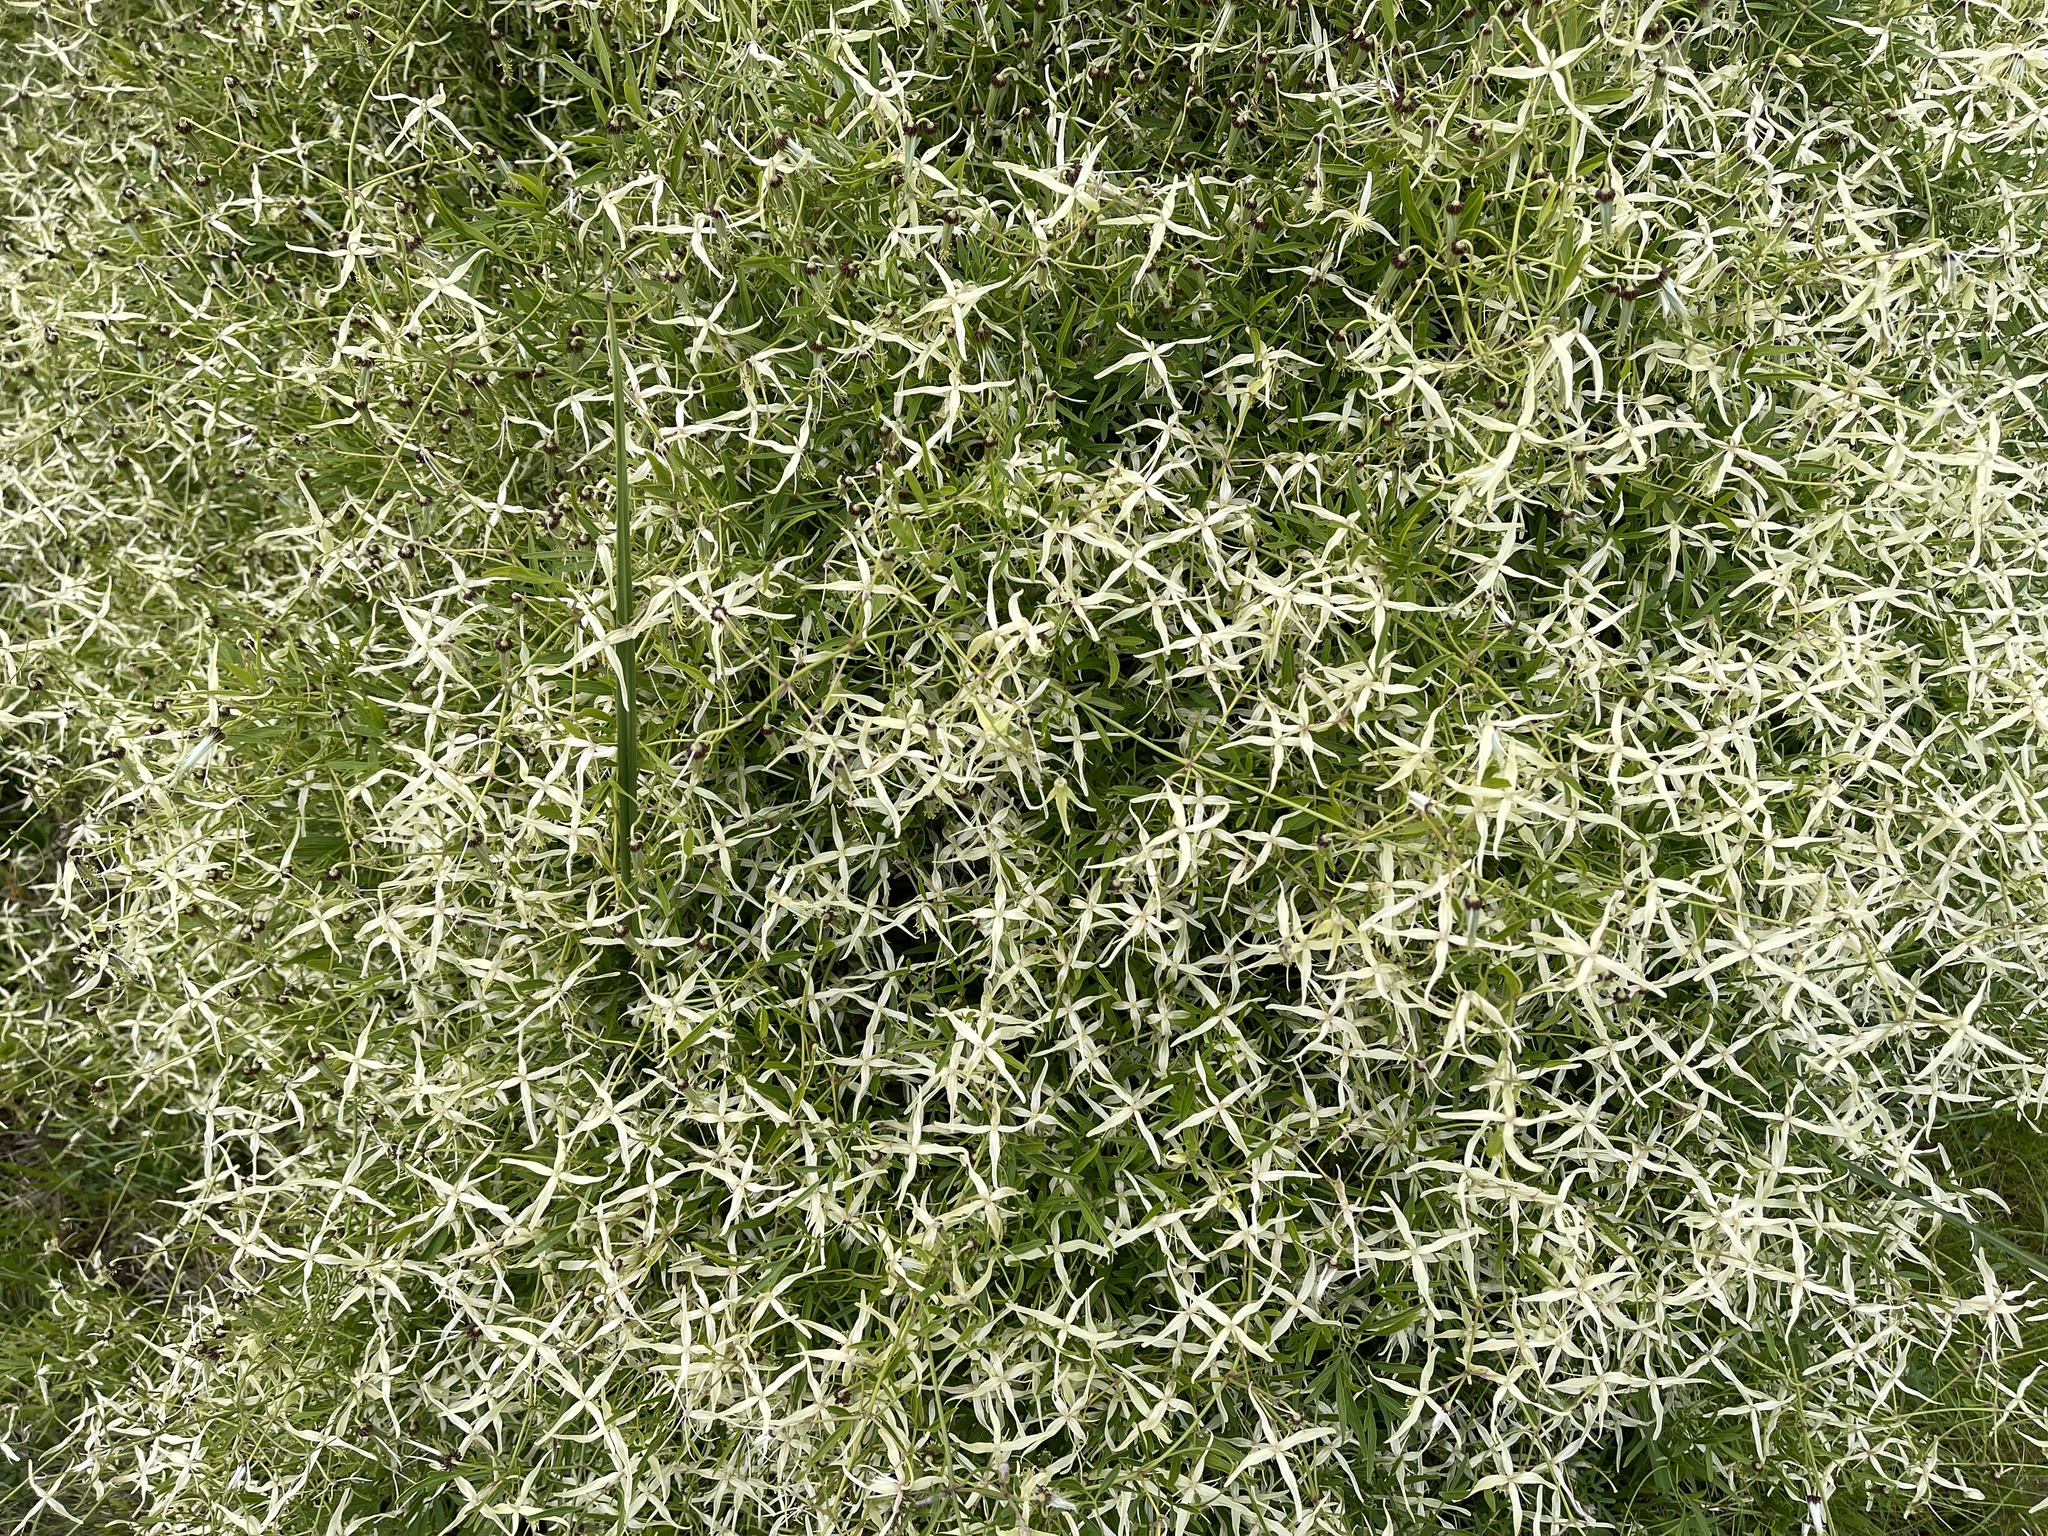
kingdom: Plantae
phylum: Tracheophyta
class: Magnoliopsida
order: Ranunculales
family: Ranunculaceae
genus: Clematis
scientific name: Clematis microphylla
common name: Headachevine
